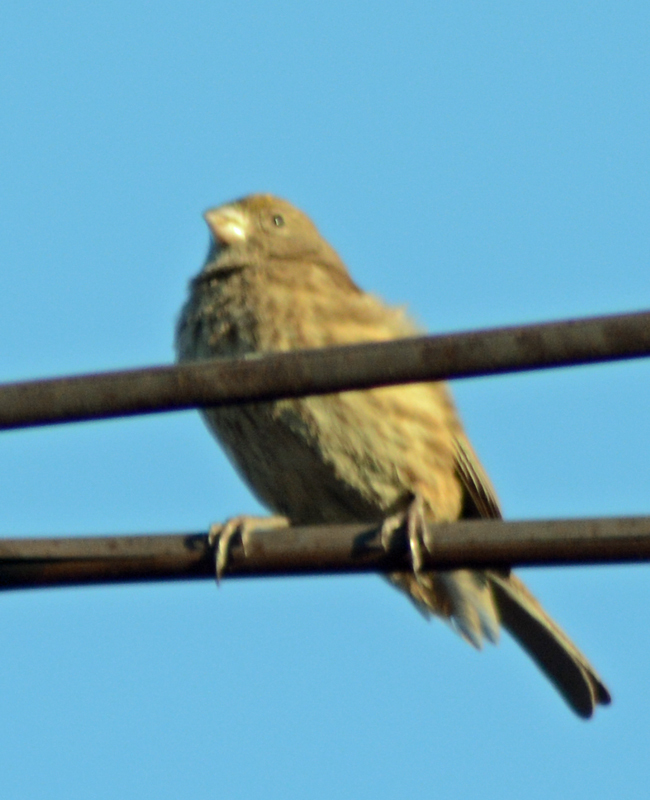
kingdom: Animalia
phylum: Chordata
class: Aves
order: Passeriformes
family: Fringillidae
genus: Haemorhous
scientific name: Haemorhous mexicanus
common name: House finch
